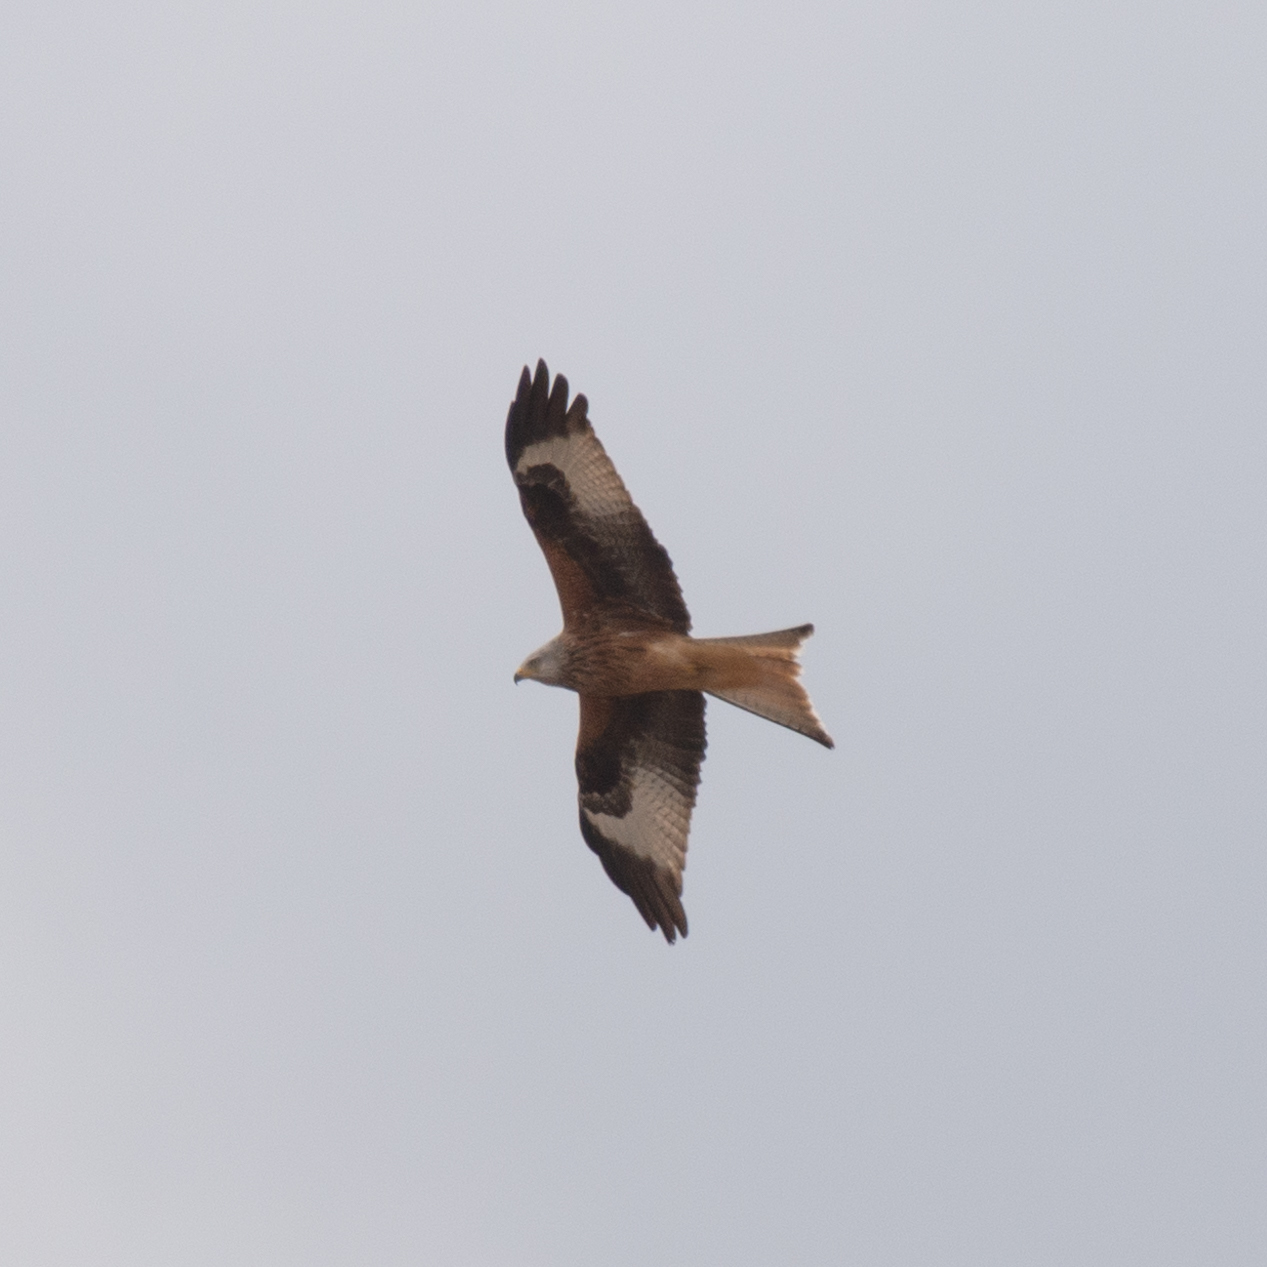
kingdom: Animalia
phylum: Chordata
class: Aves
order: Accipitriformes
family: Accipitridae
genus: Milvus
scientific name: Milvus milvus
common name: Red kite
